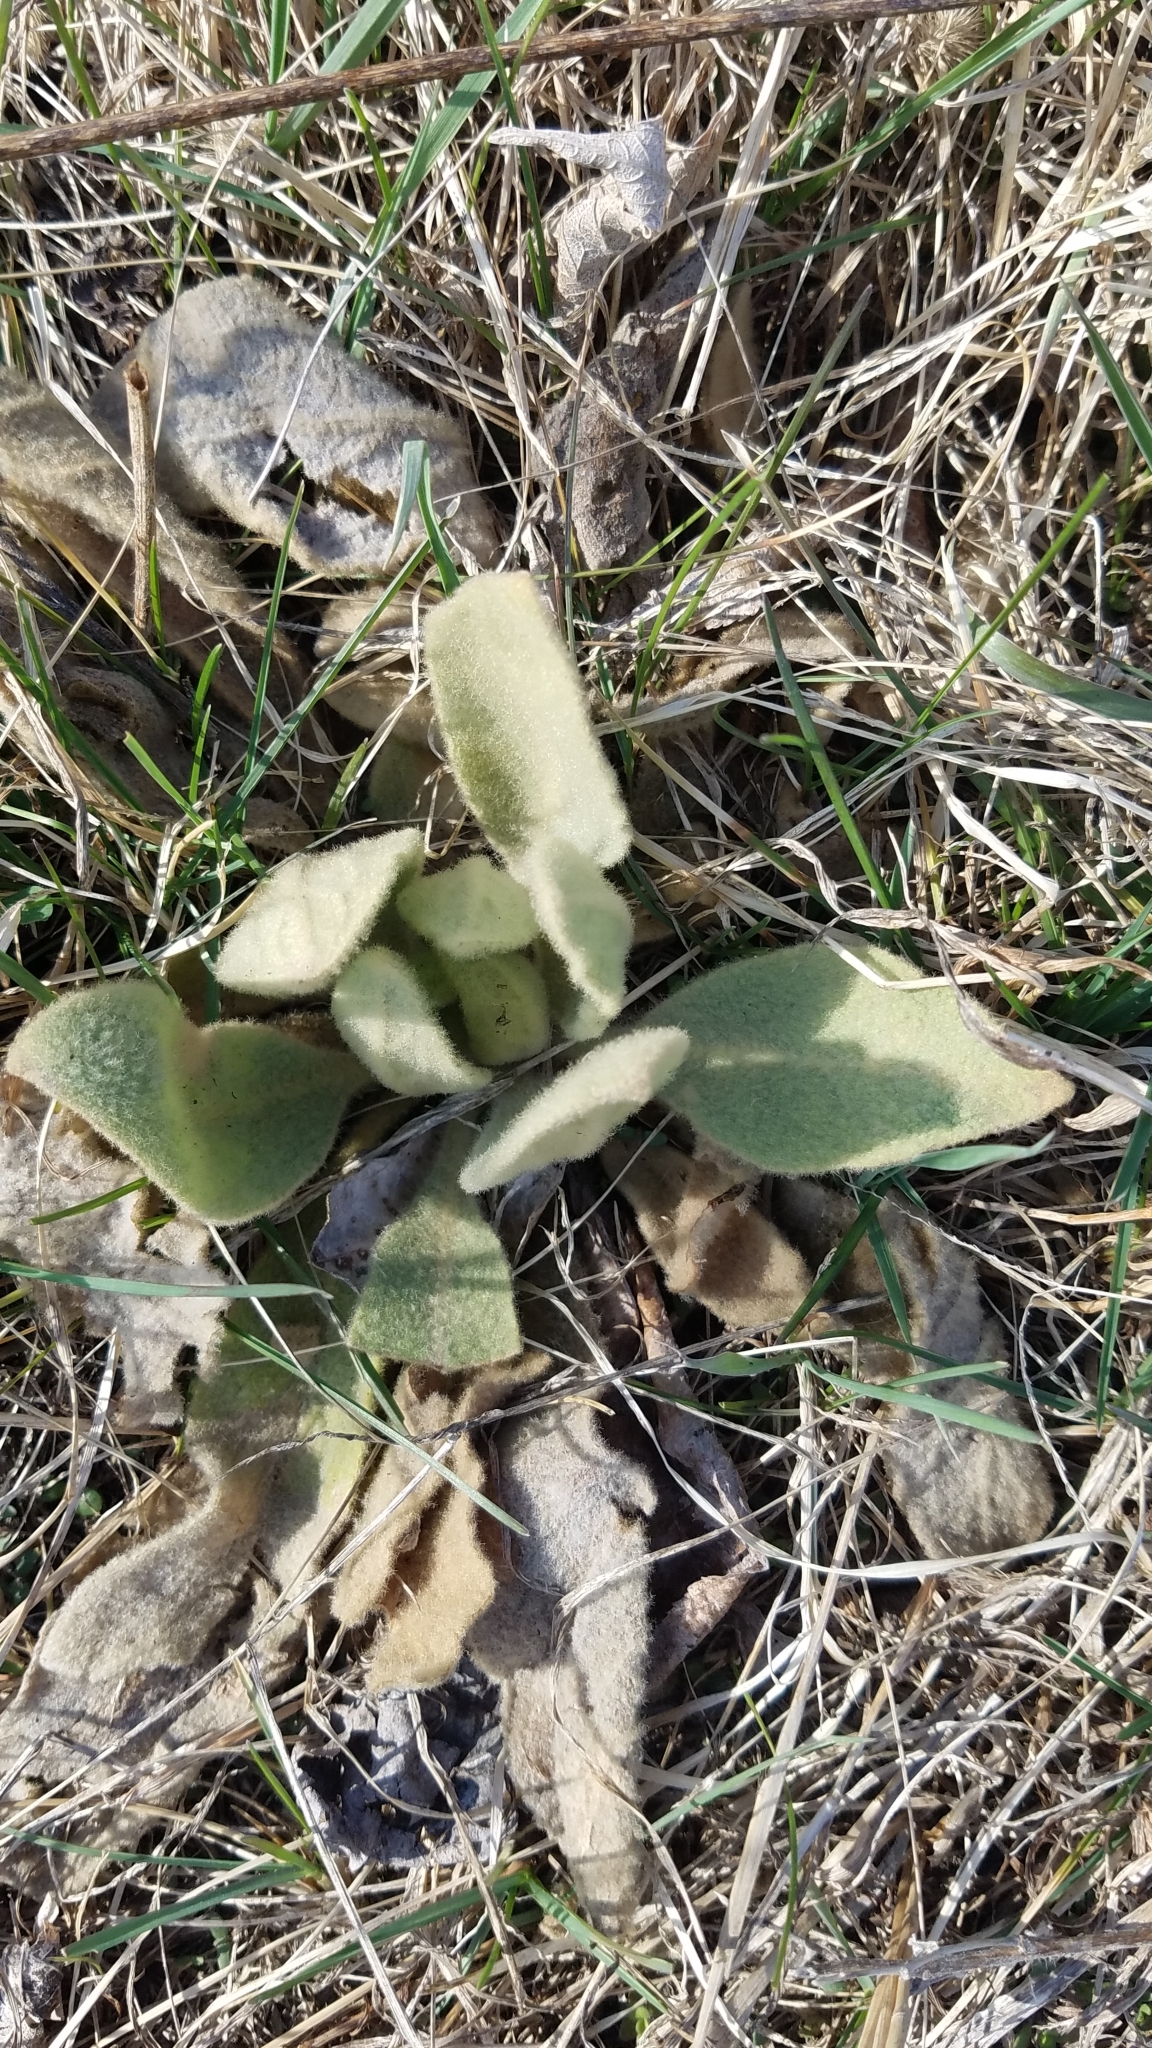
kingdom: Plantae
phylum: Tracheophyta
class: Magnoliopsida
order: Lamiales
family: Scrophulariaceae
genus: Verbascum
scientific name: Verbascum thapsus
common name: Common mullein
